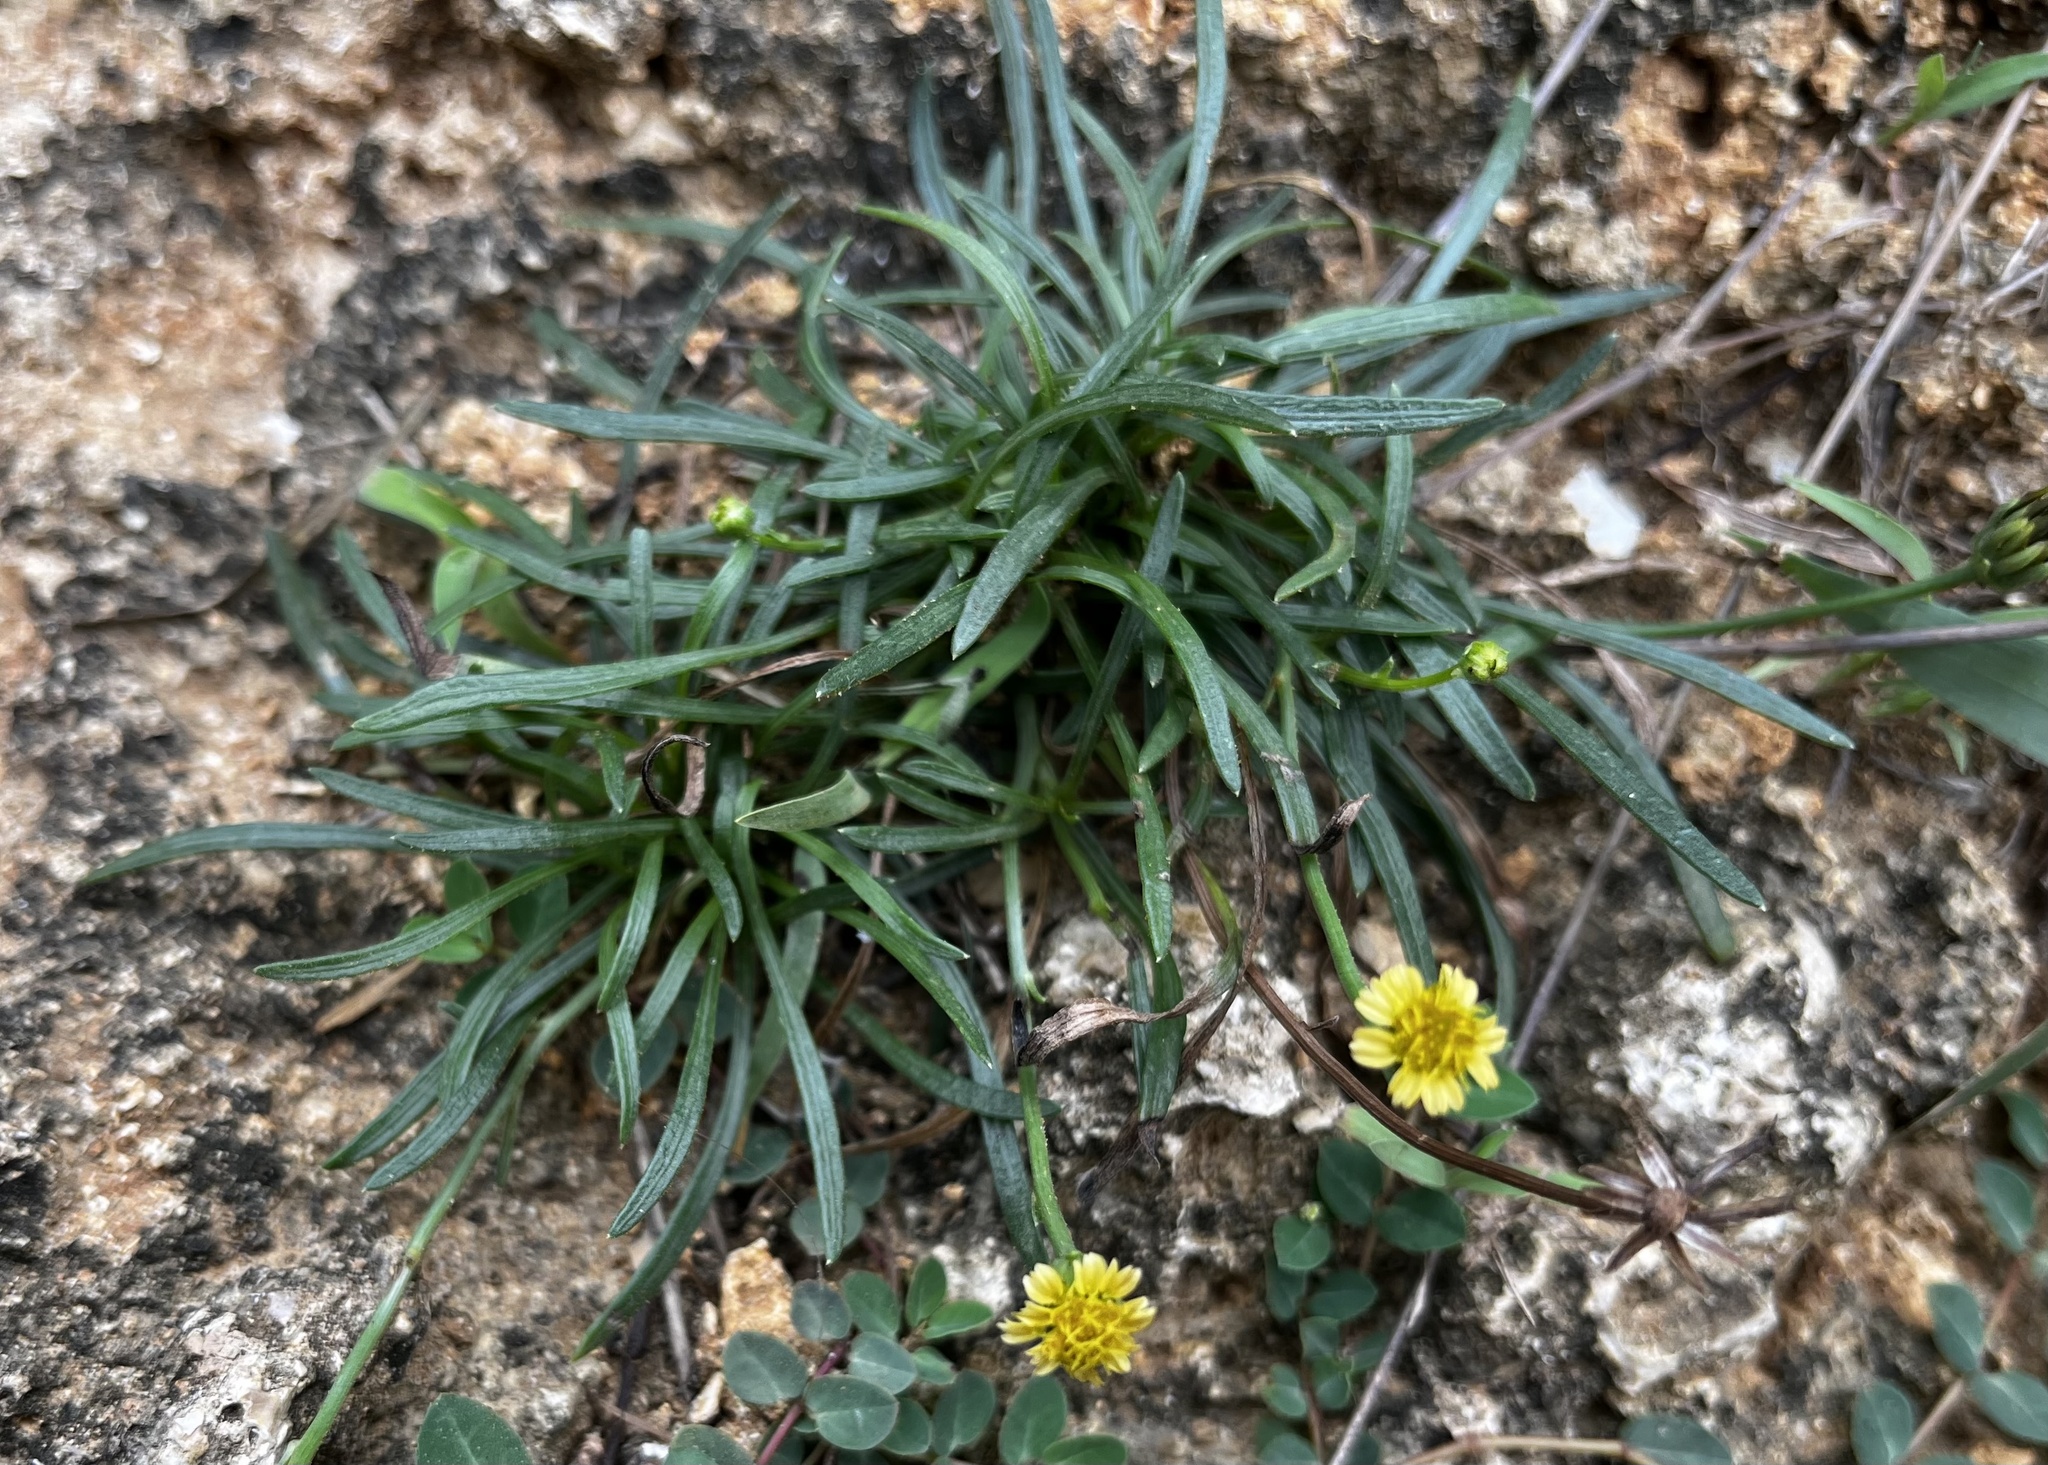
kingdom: Plantae
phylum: Tracheophyta
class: Magnoliopsida
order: Asterales
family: Asteraceae
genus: Glossocardia
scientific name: Glossocardia bidens
